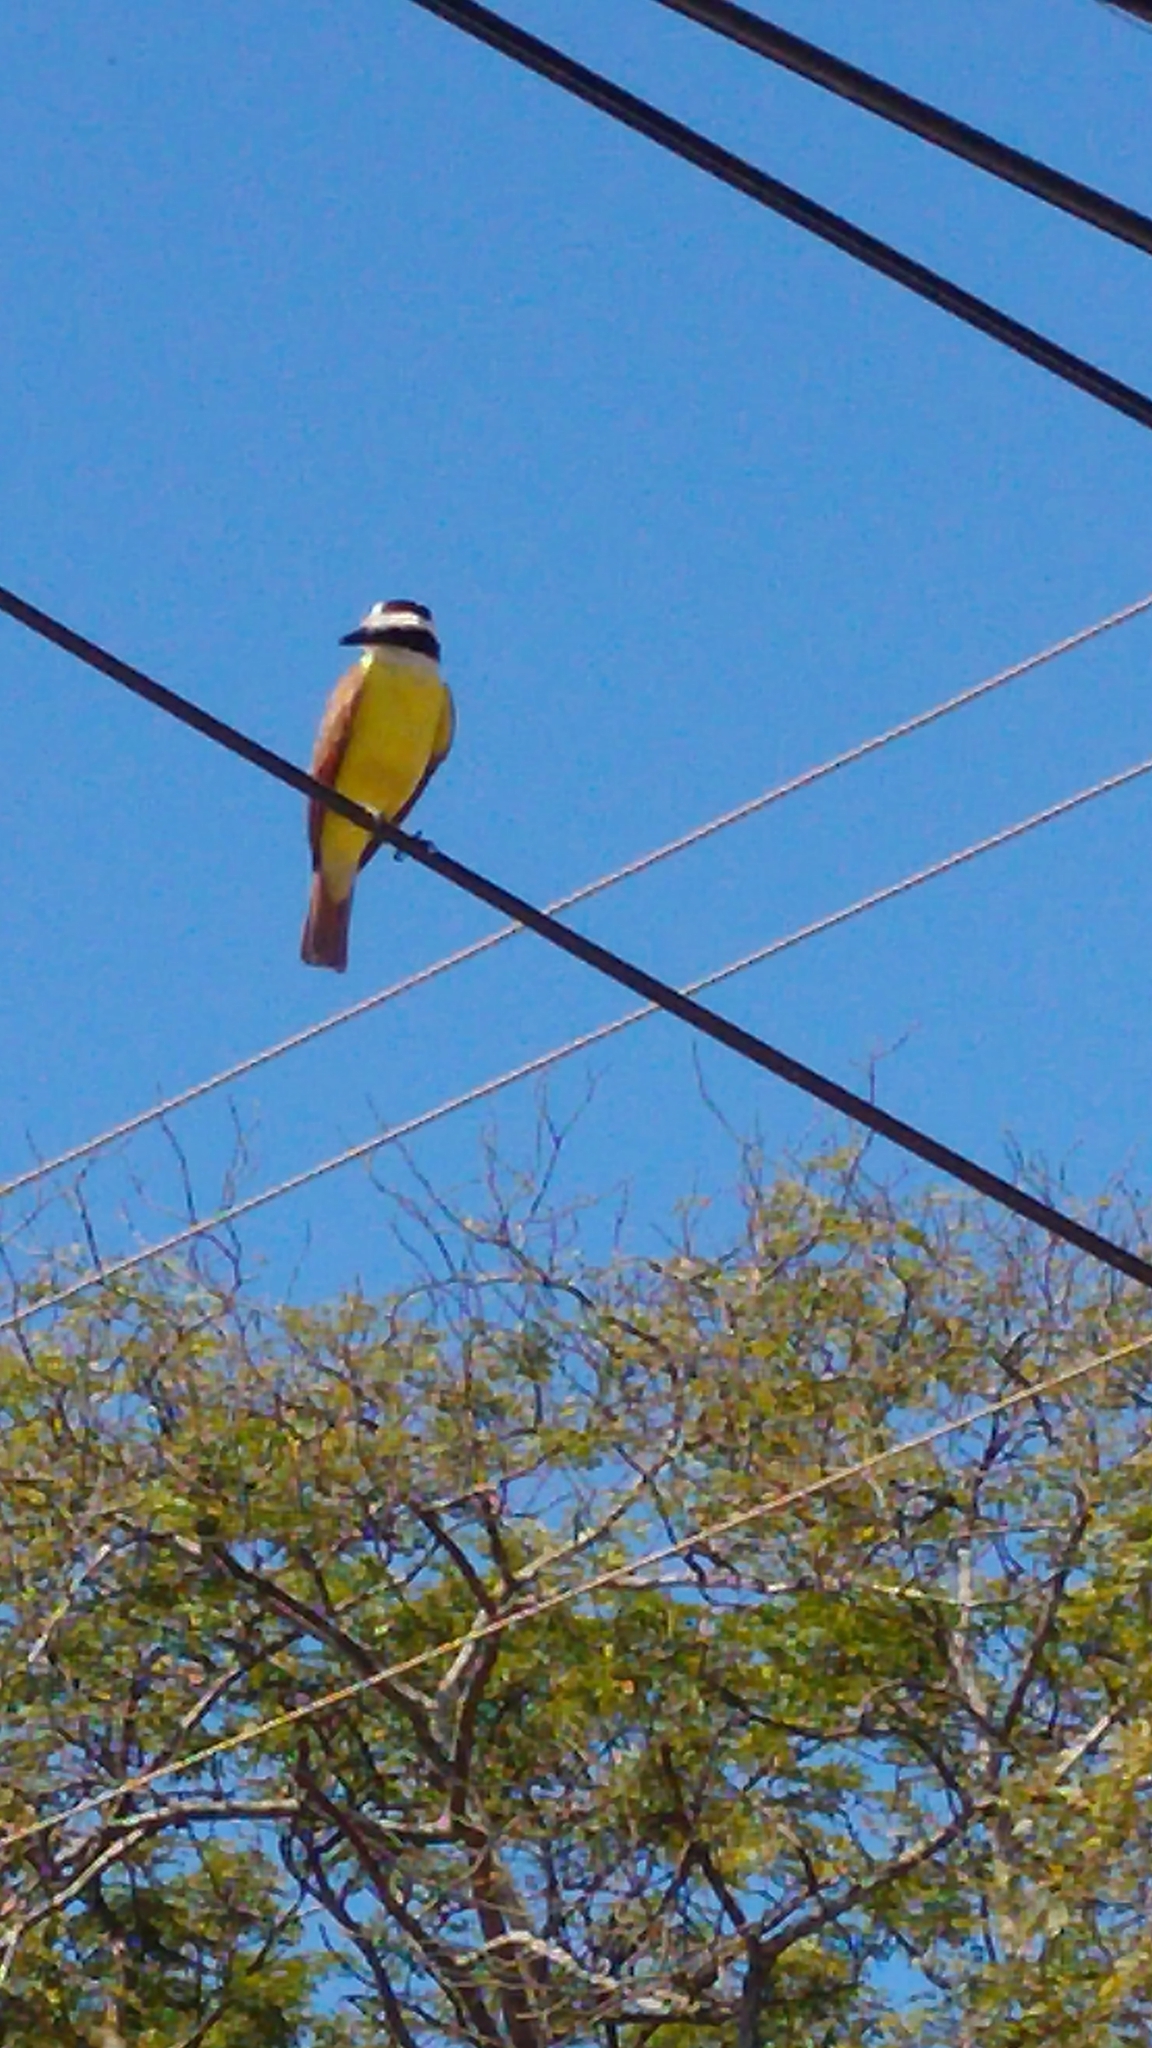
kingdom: Animalia
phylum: Chordata
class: Aves
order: Passeriformes
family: Tyrannidae
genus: Pitangus
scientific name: Pitangus sulphuratus
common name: Great kiskadee
